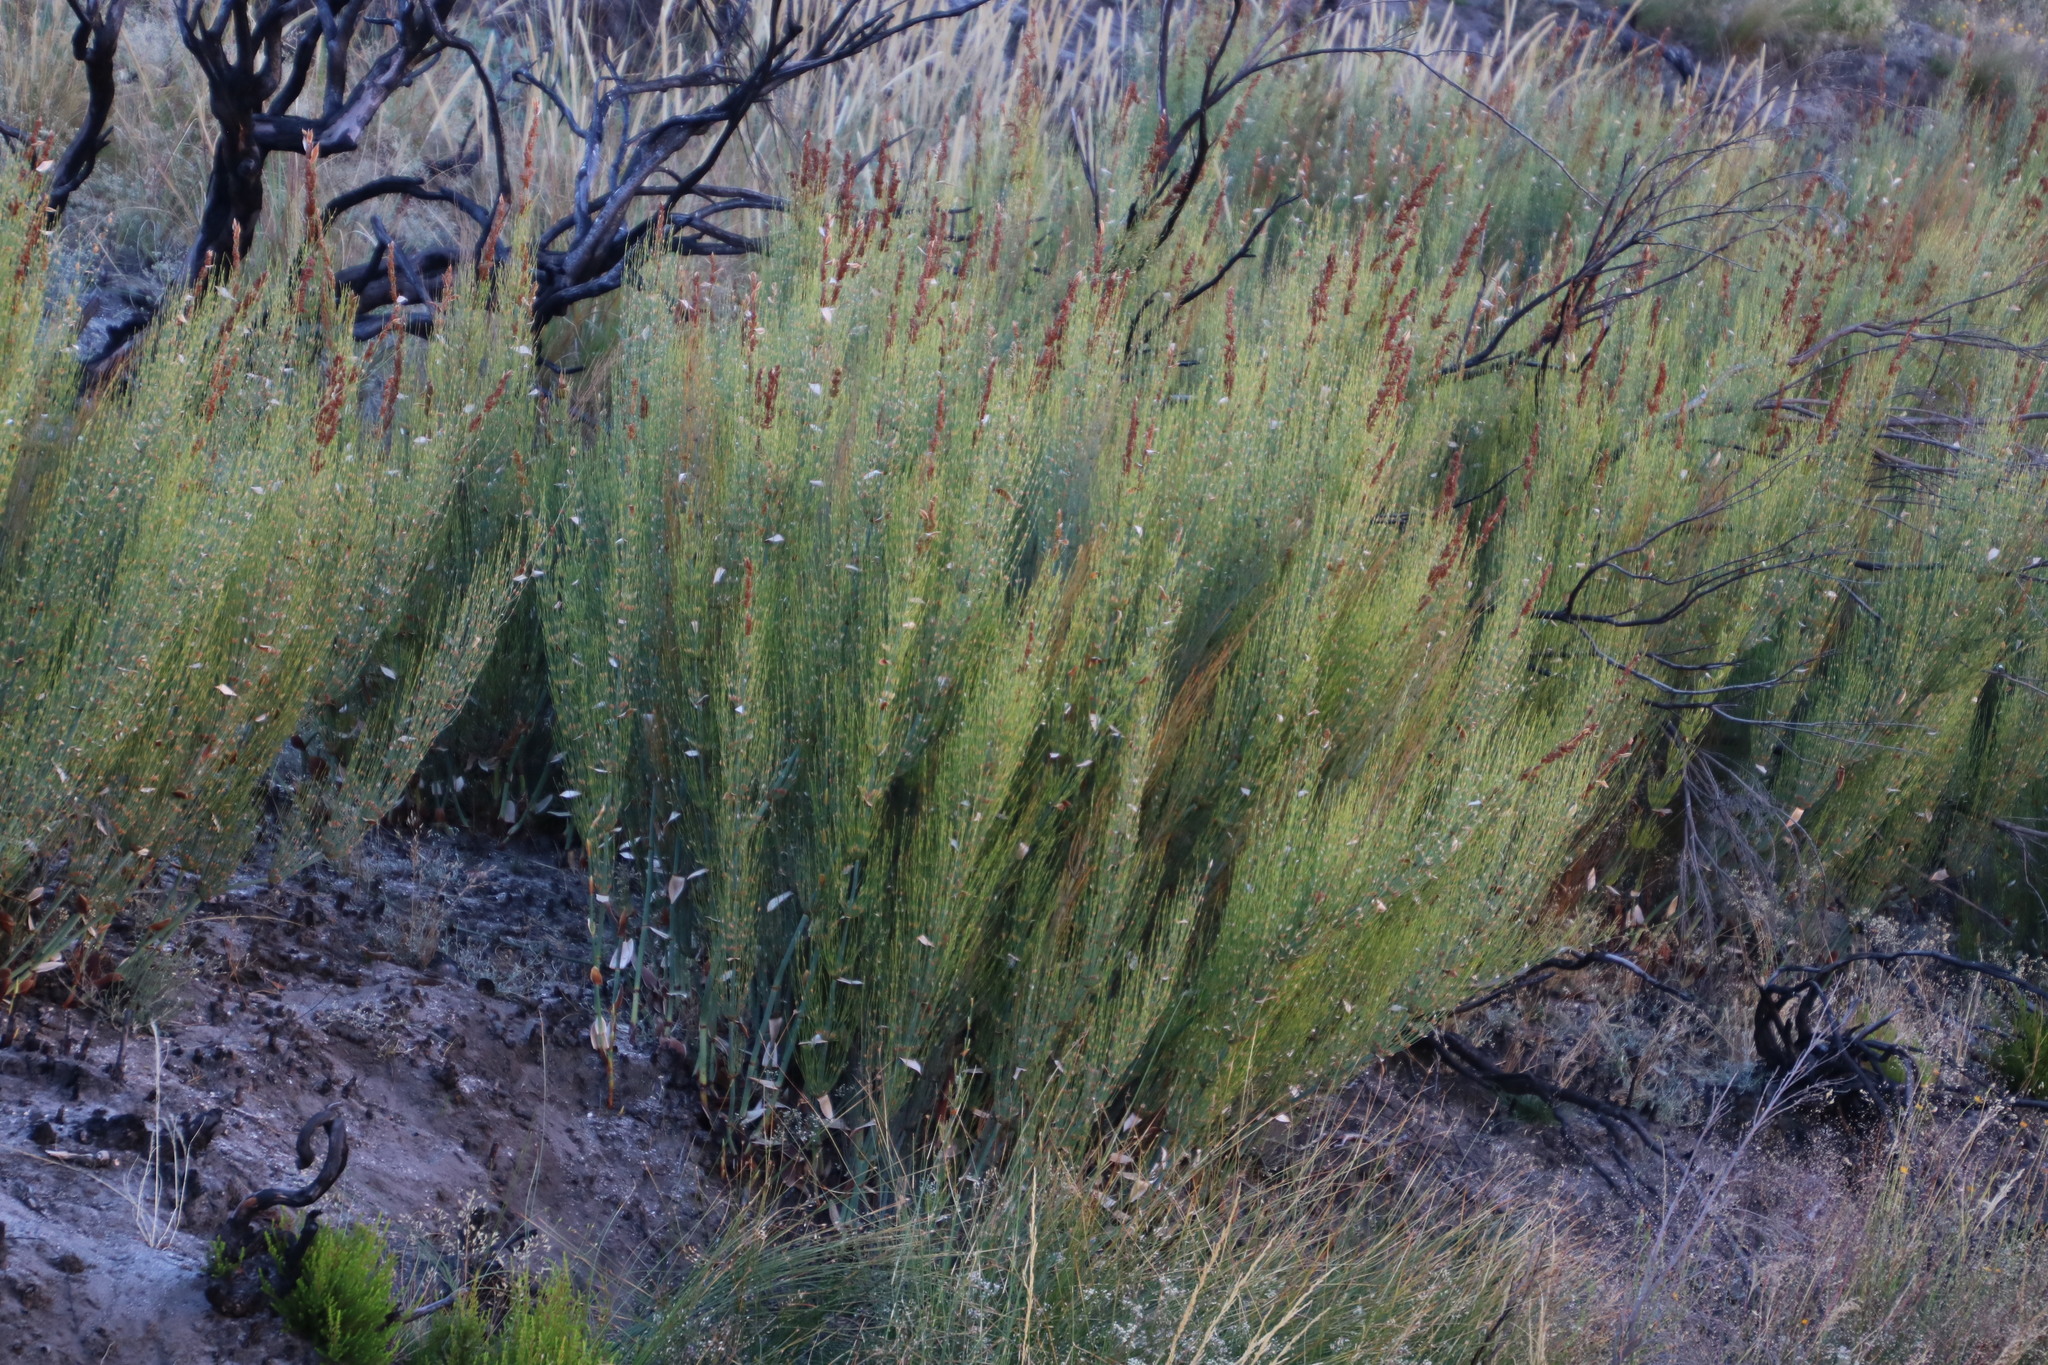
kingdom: Plantae
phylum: Tracheophyta
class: Liliopsida
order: Poales
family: Restionaceae
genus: Elegia
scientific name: Elegia capensis
